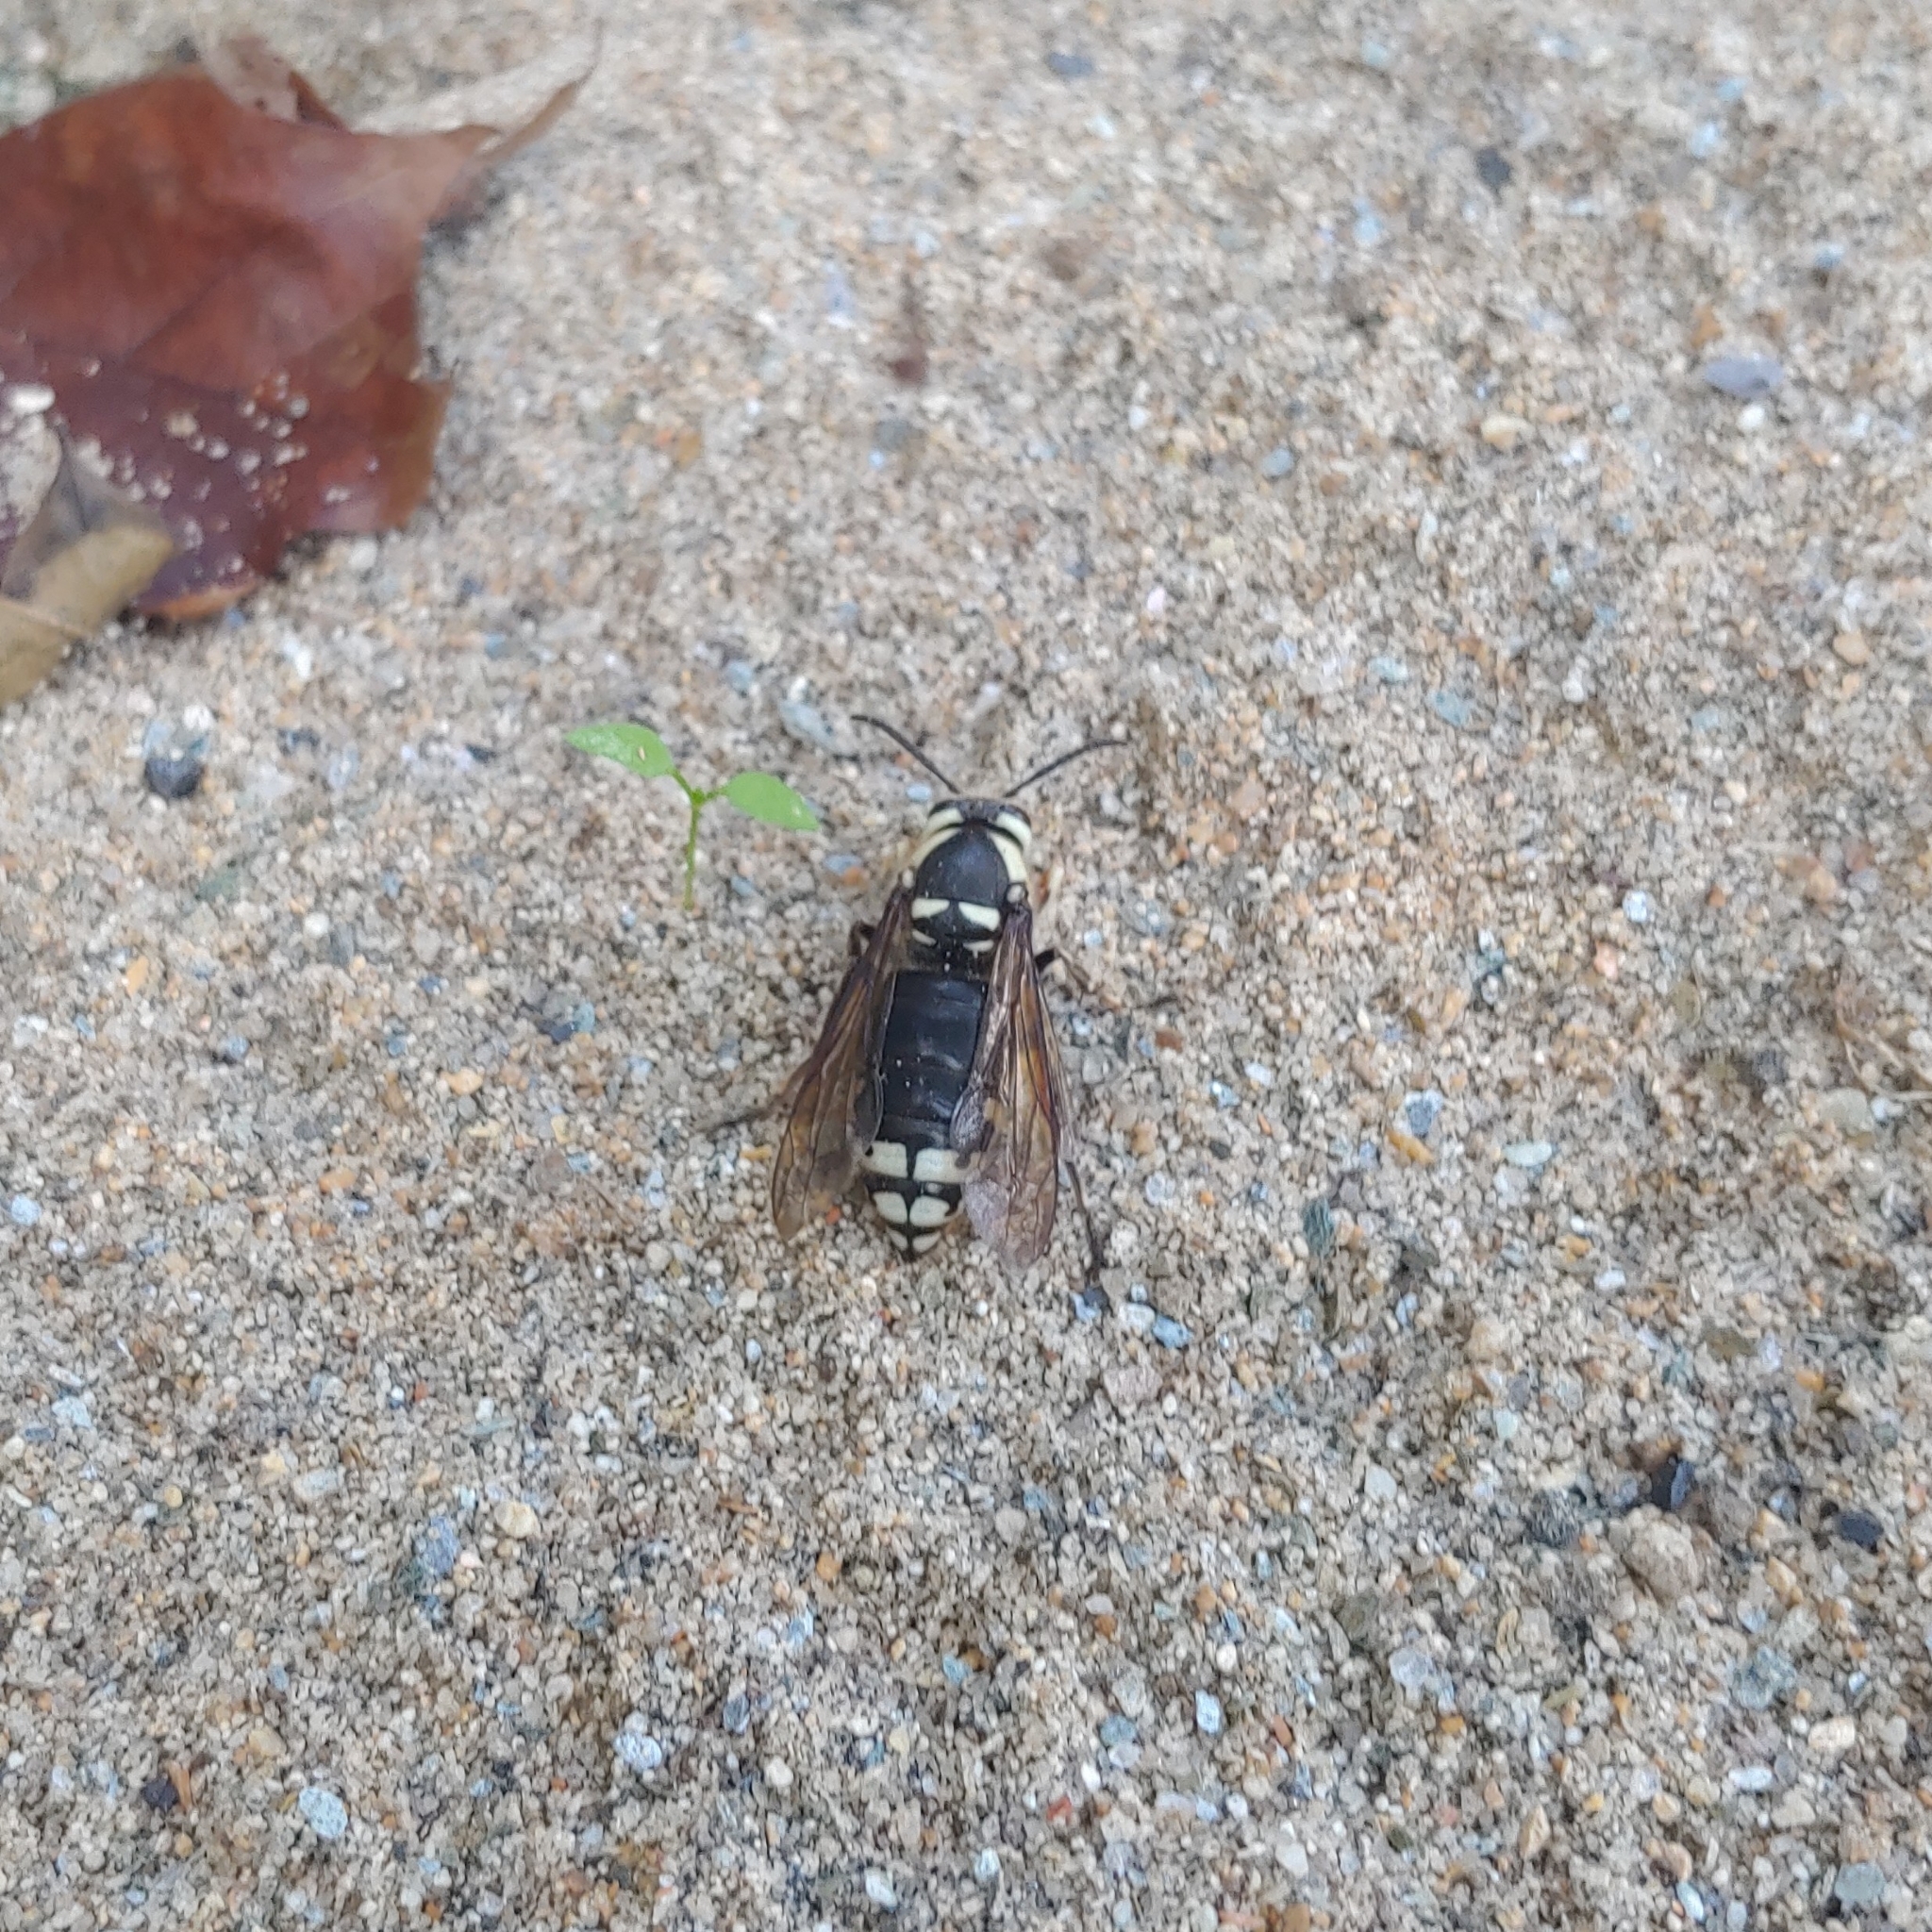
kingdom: Animalia
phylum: Arthropoda
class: Insecta
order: Hymenoptera
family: Vespidae
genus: Dolichovespula
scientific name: Dolichovespula maculata
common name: Bald-faced hornet
